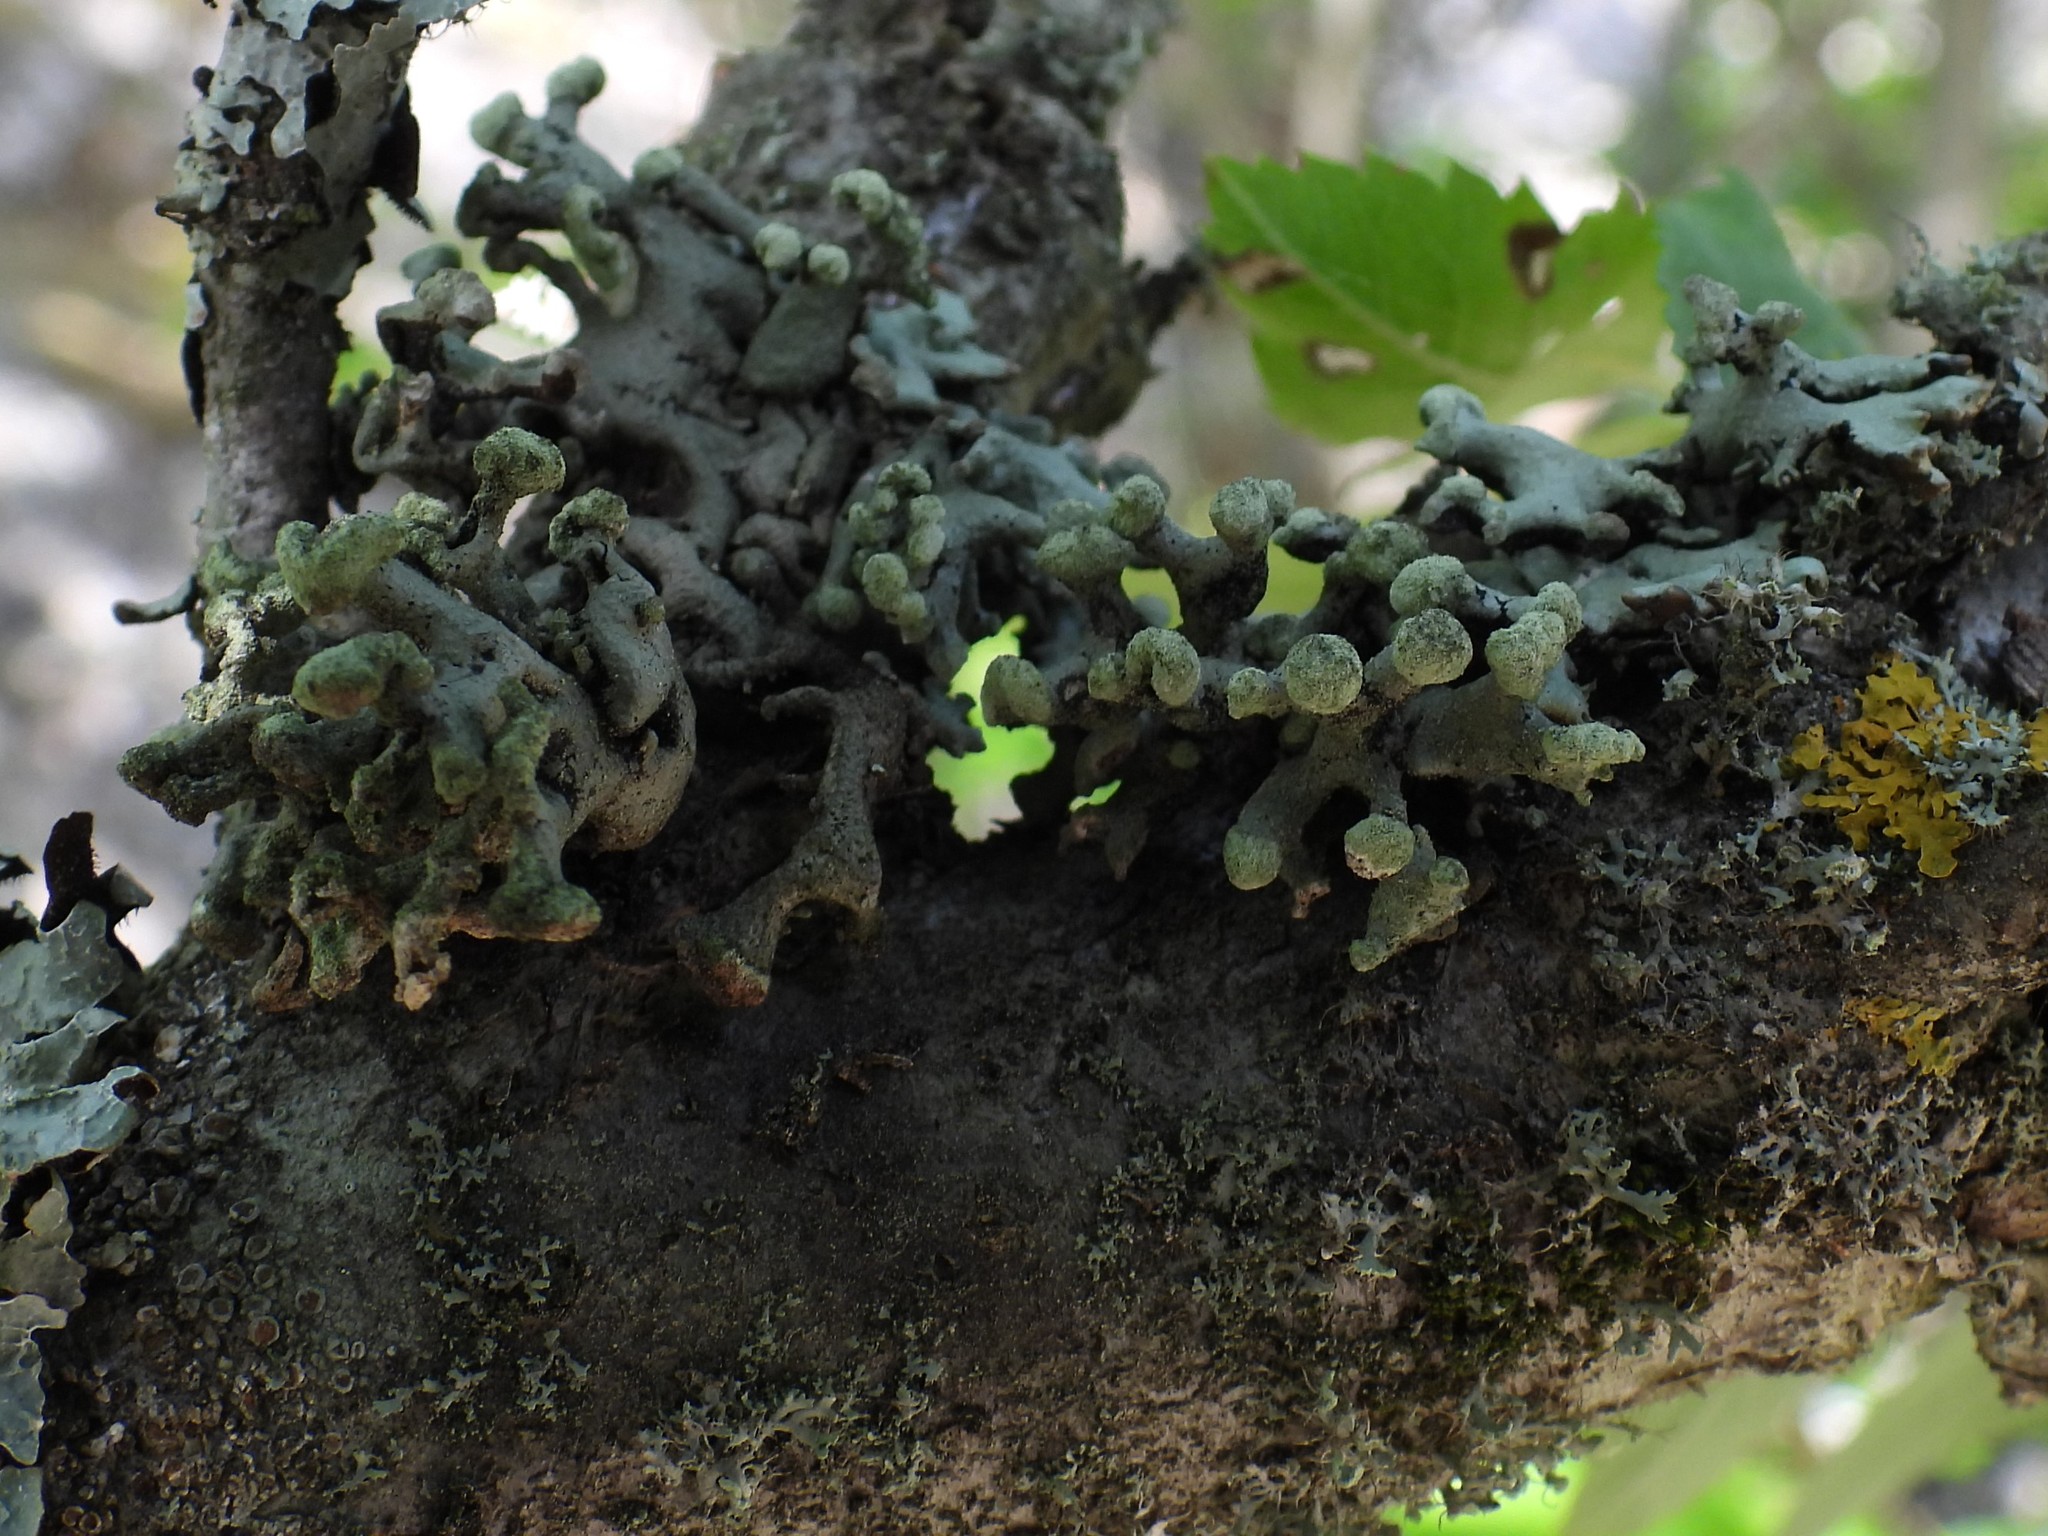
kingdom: Fungi
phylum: Ascomycota
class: Lecanoromycetes
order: Lecanorales
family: Parmeliaceae
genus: Hypogymnia
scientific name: Hypogymnia tubulosa
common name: Powder-headed tube lichen
